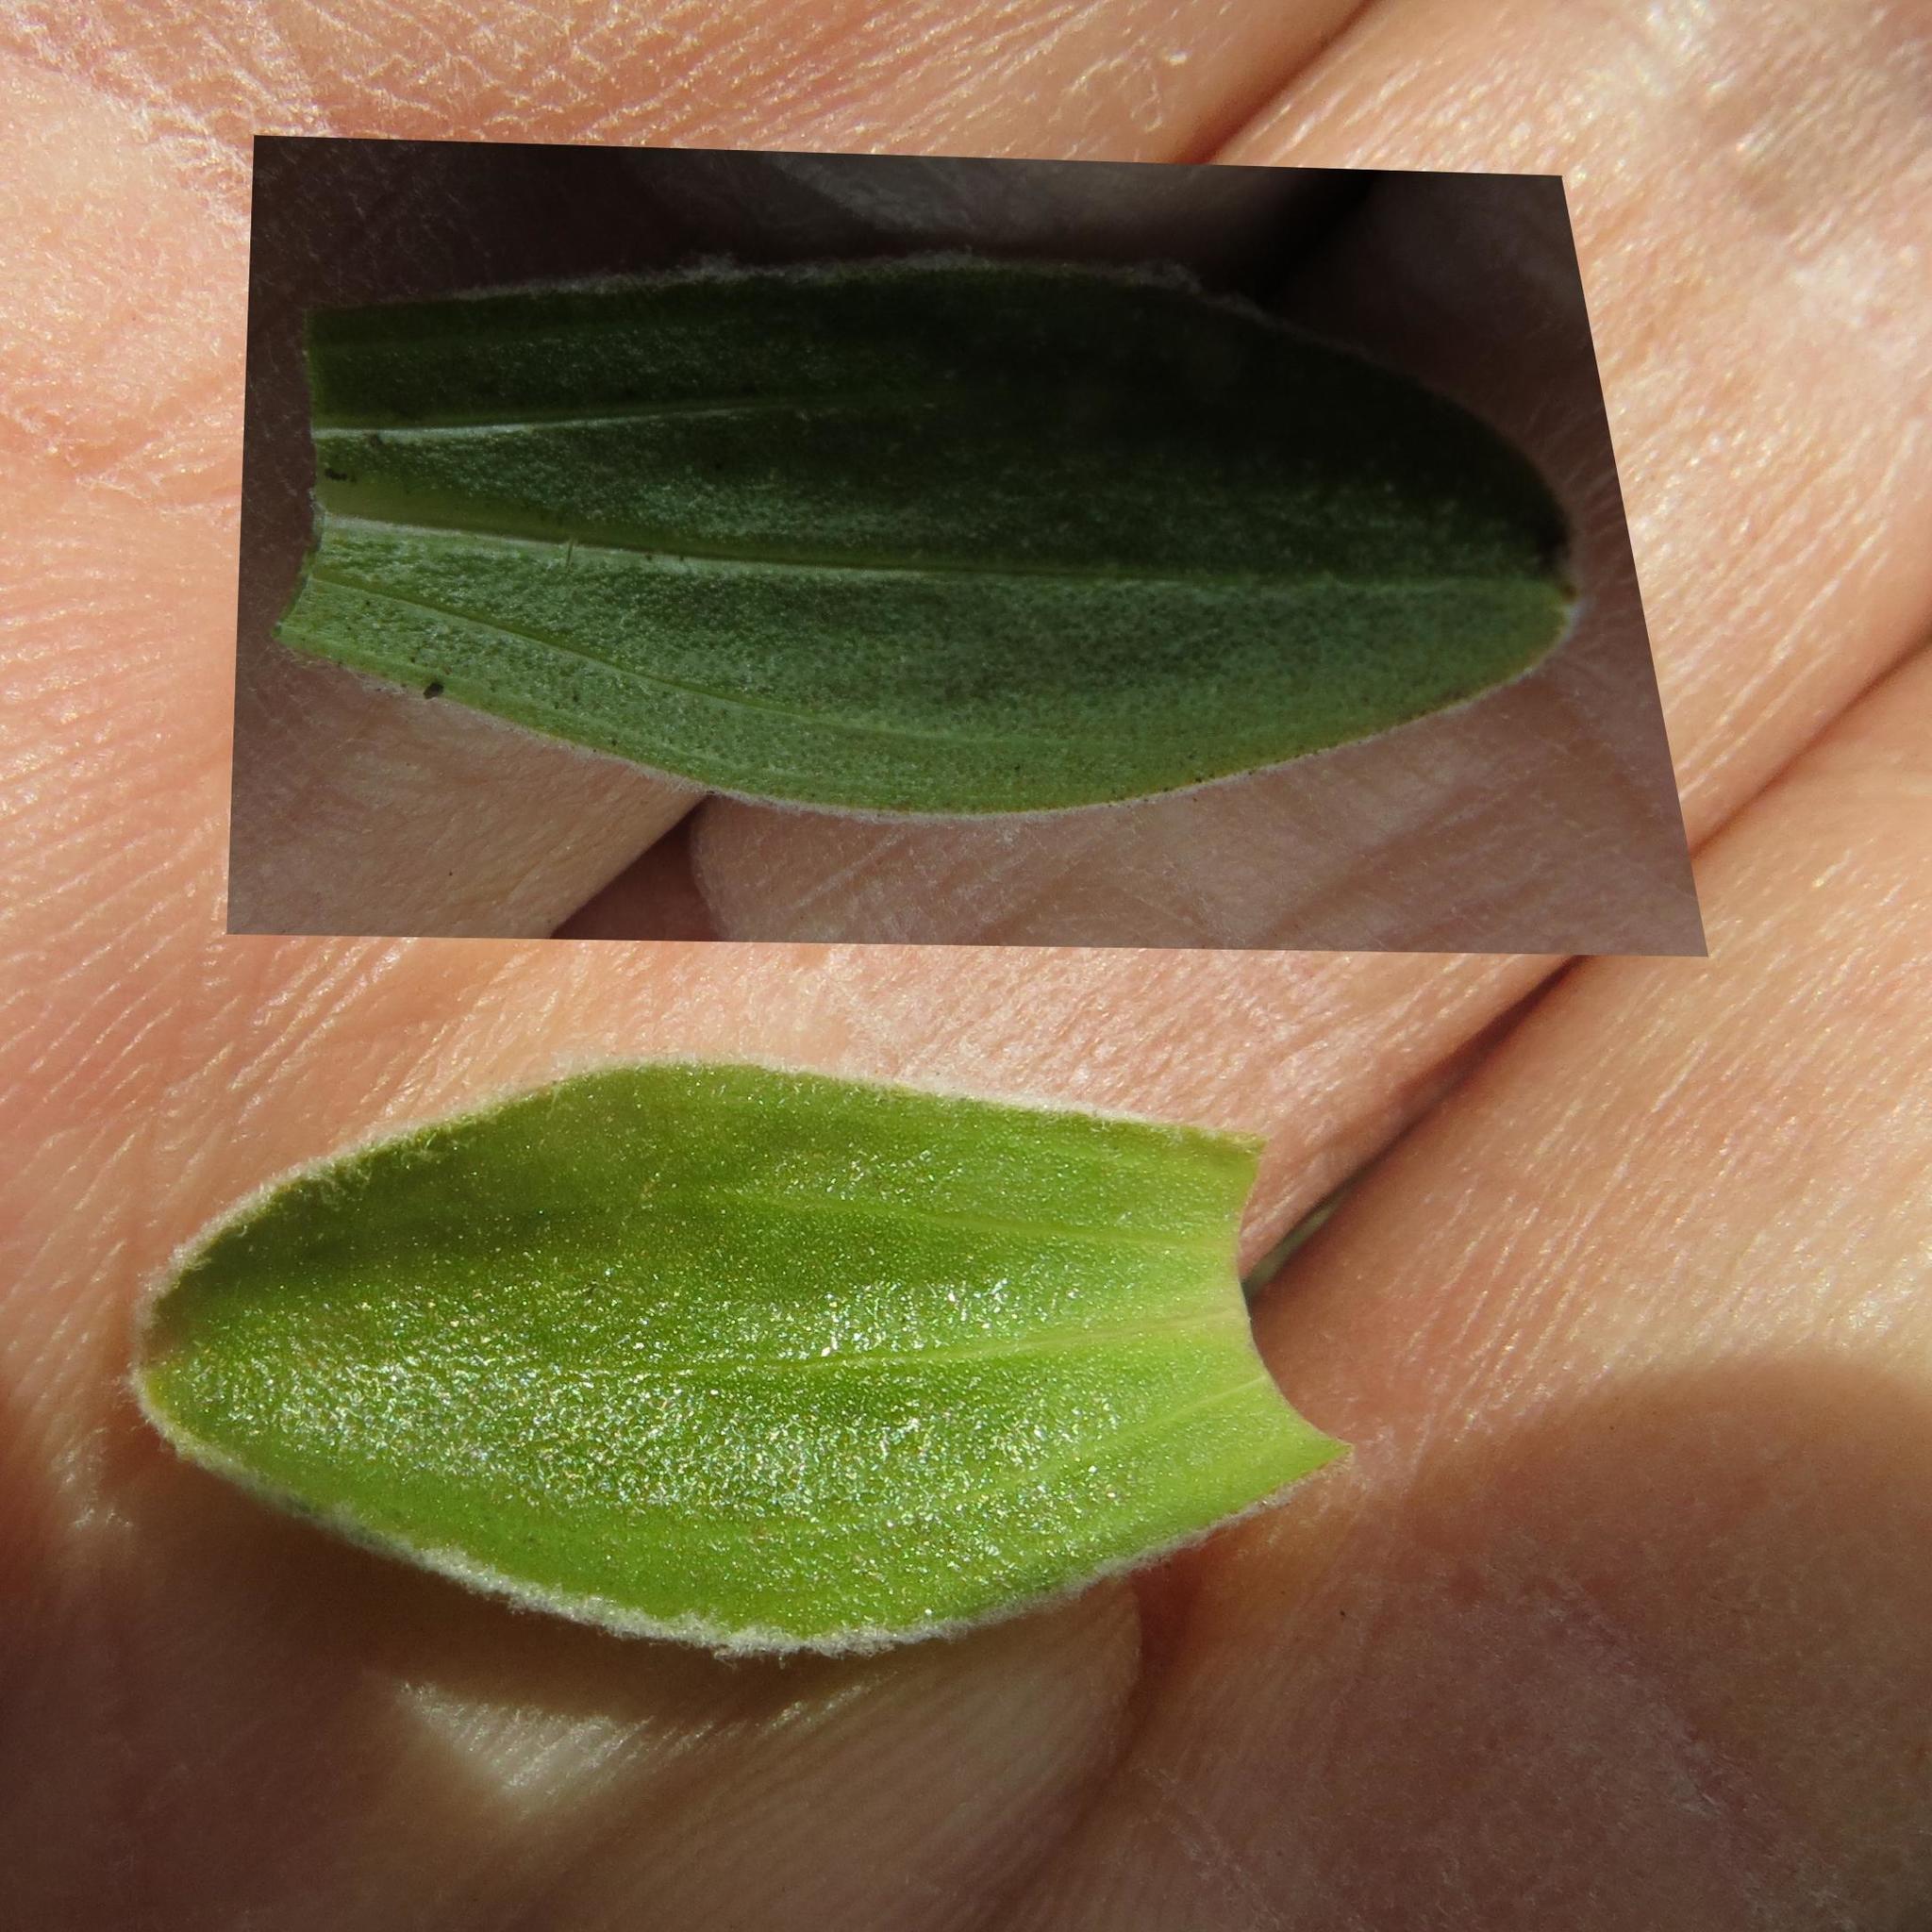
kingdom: Plantae
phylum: Tracheophyta
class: Magnoliopsida
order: Asterales
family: Asteraceae
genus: Helichrysum
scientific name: Helichrysum marginatum
